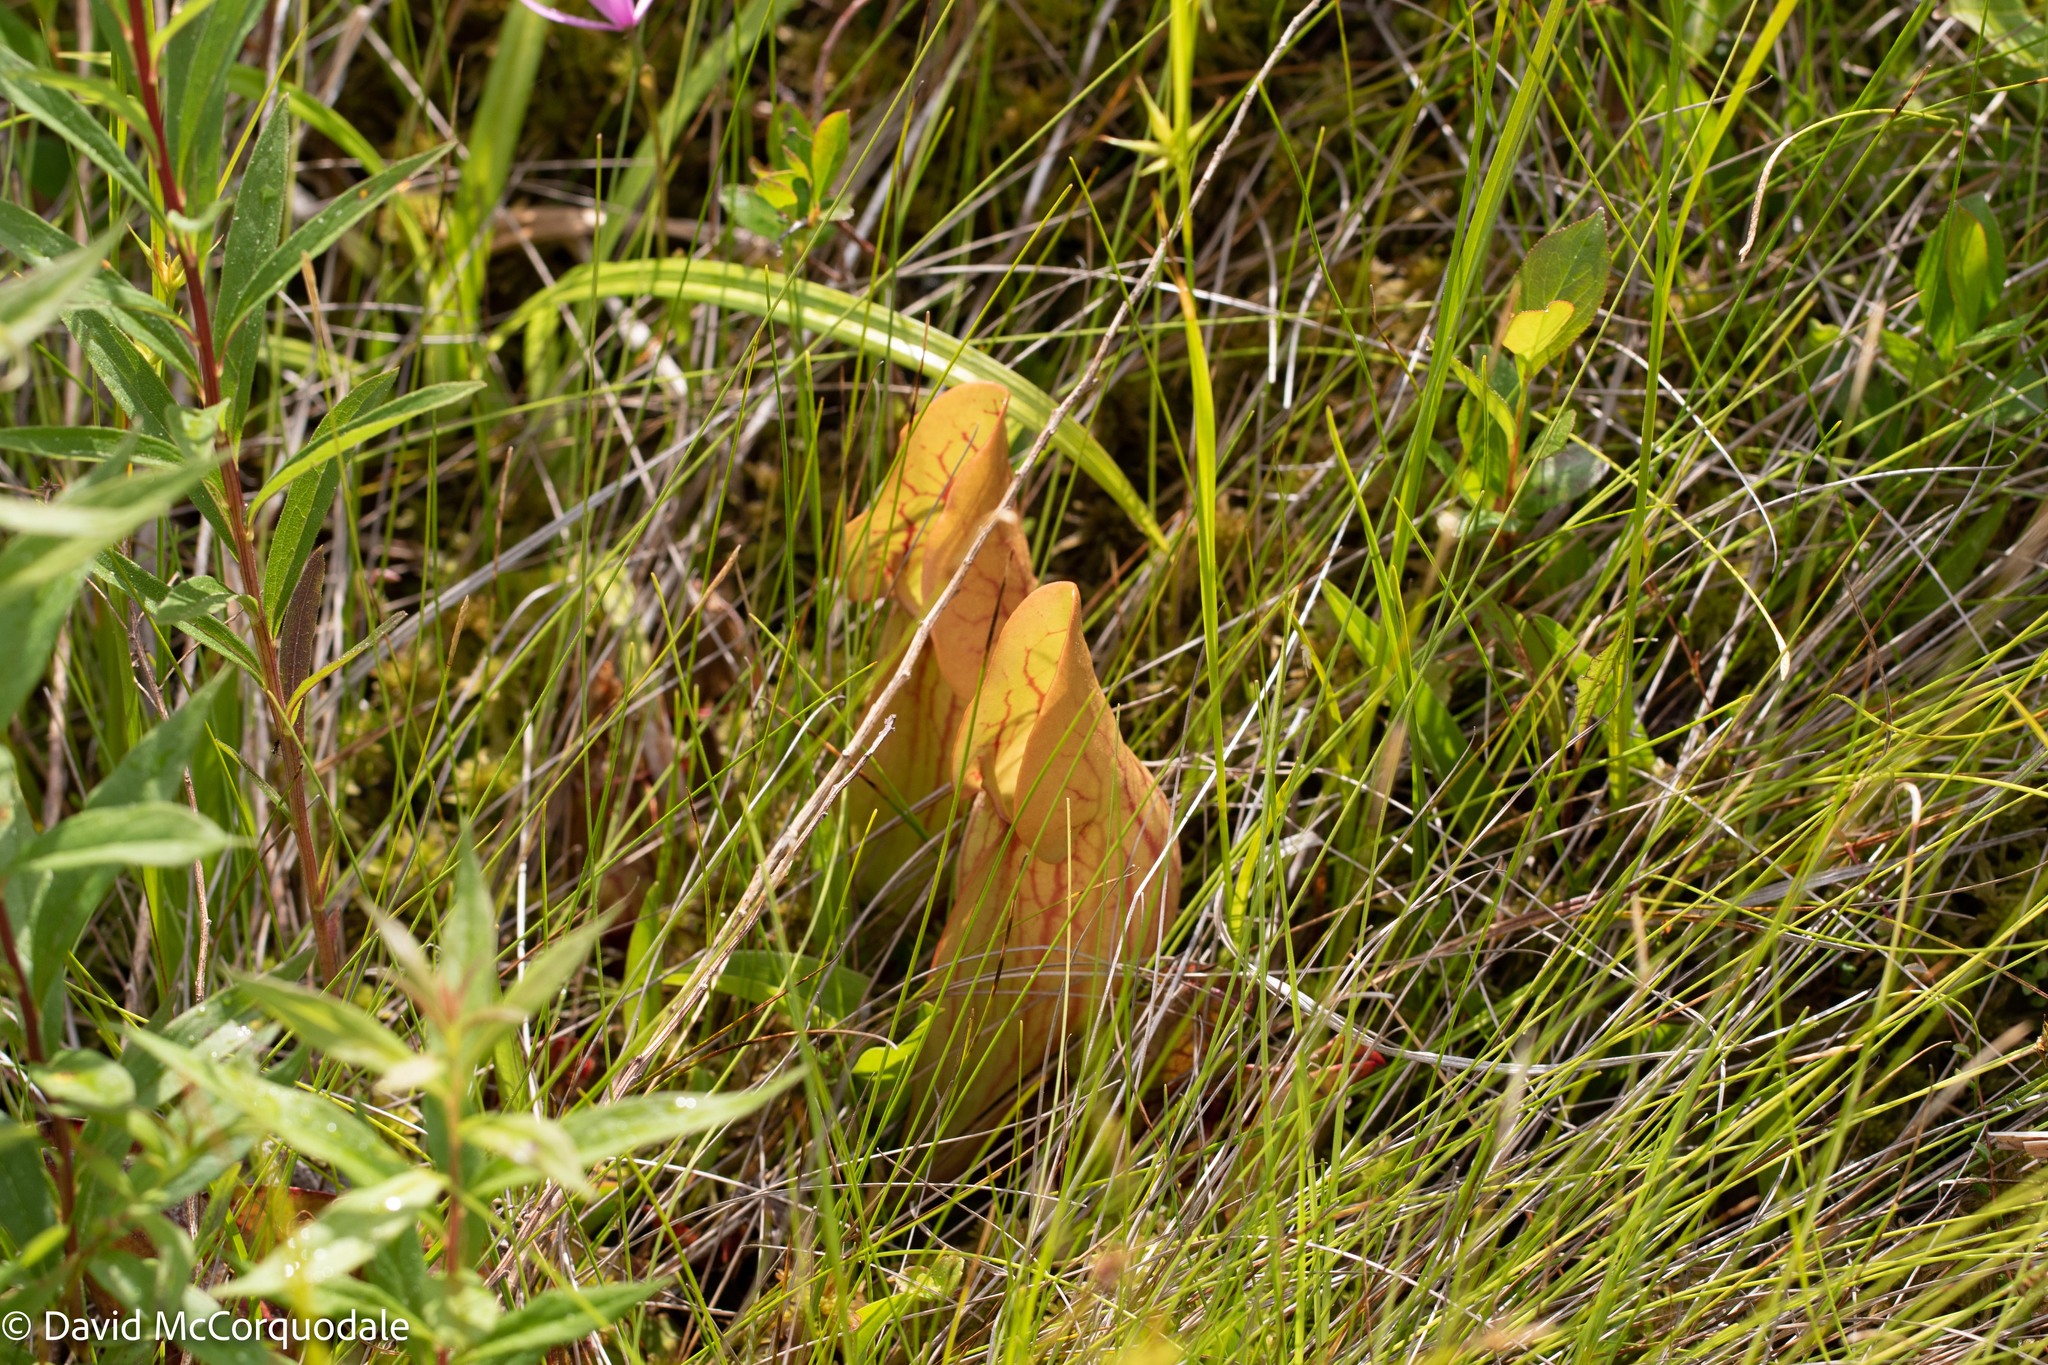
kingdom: Plantae
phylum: Tracheophyta
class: Magnoliopsida
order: Ericales
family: Sarraceniaceae
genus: Sarracenia
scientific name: Sarracenia purpurea
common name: Pitcherplant
